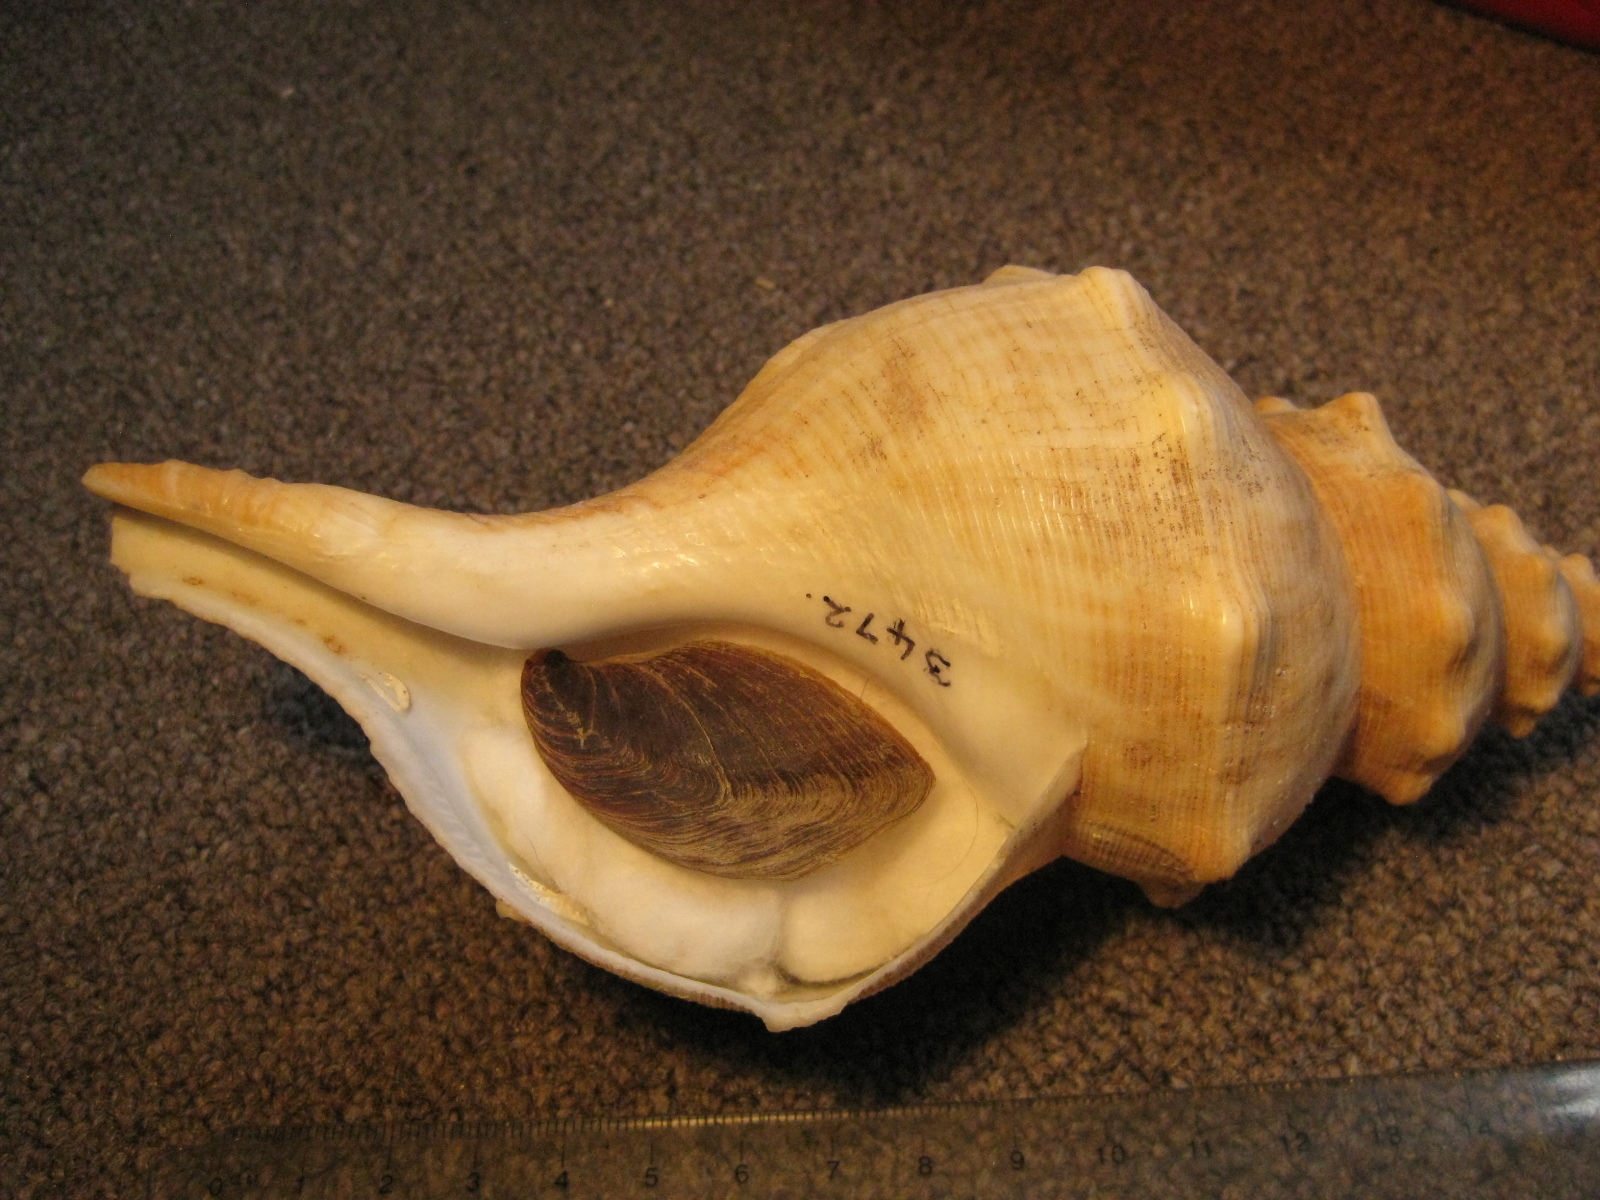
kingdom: Animalia
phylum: Mollusca
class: Gastropoda
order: Neogastropoda
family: Austrosiphonidae
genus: Penion
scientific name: Penion cuvierianus
